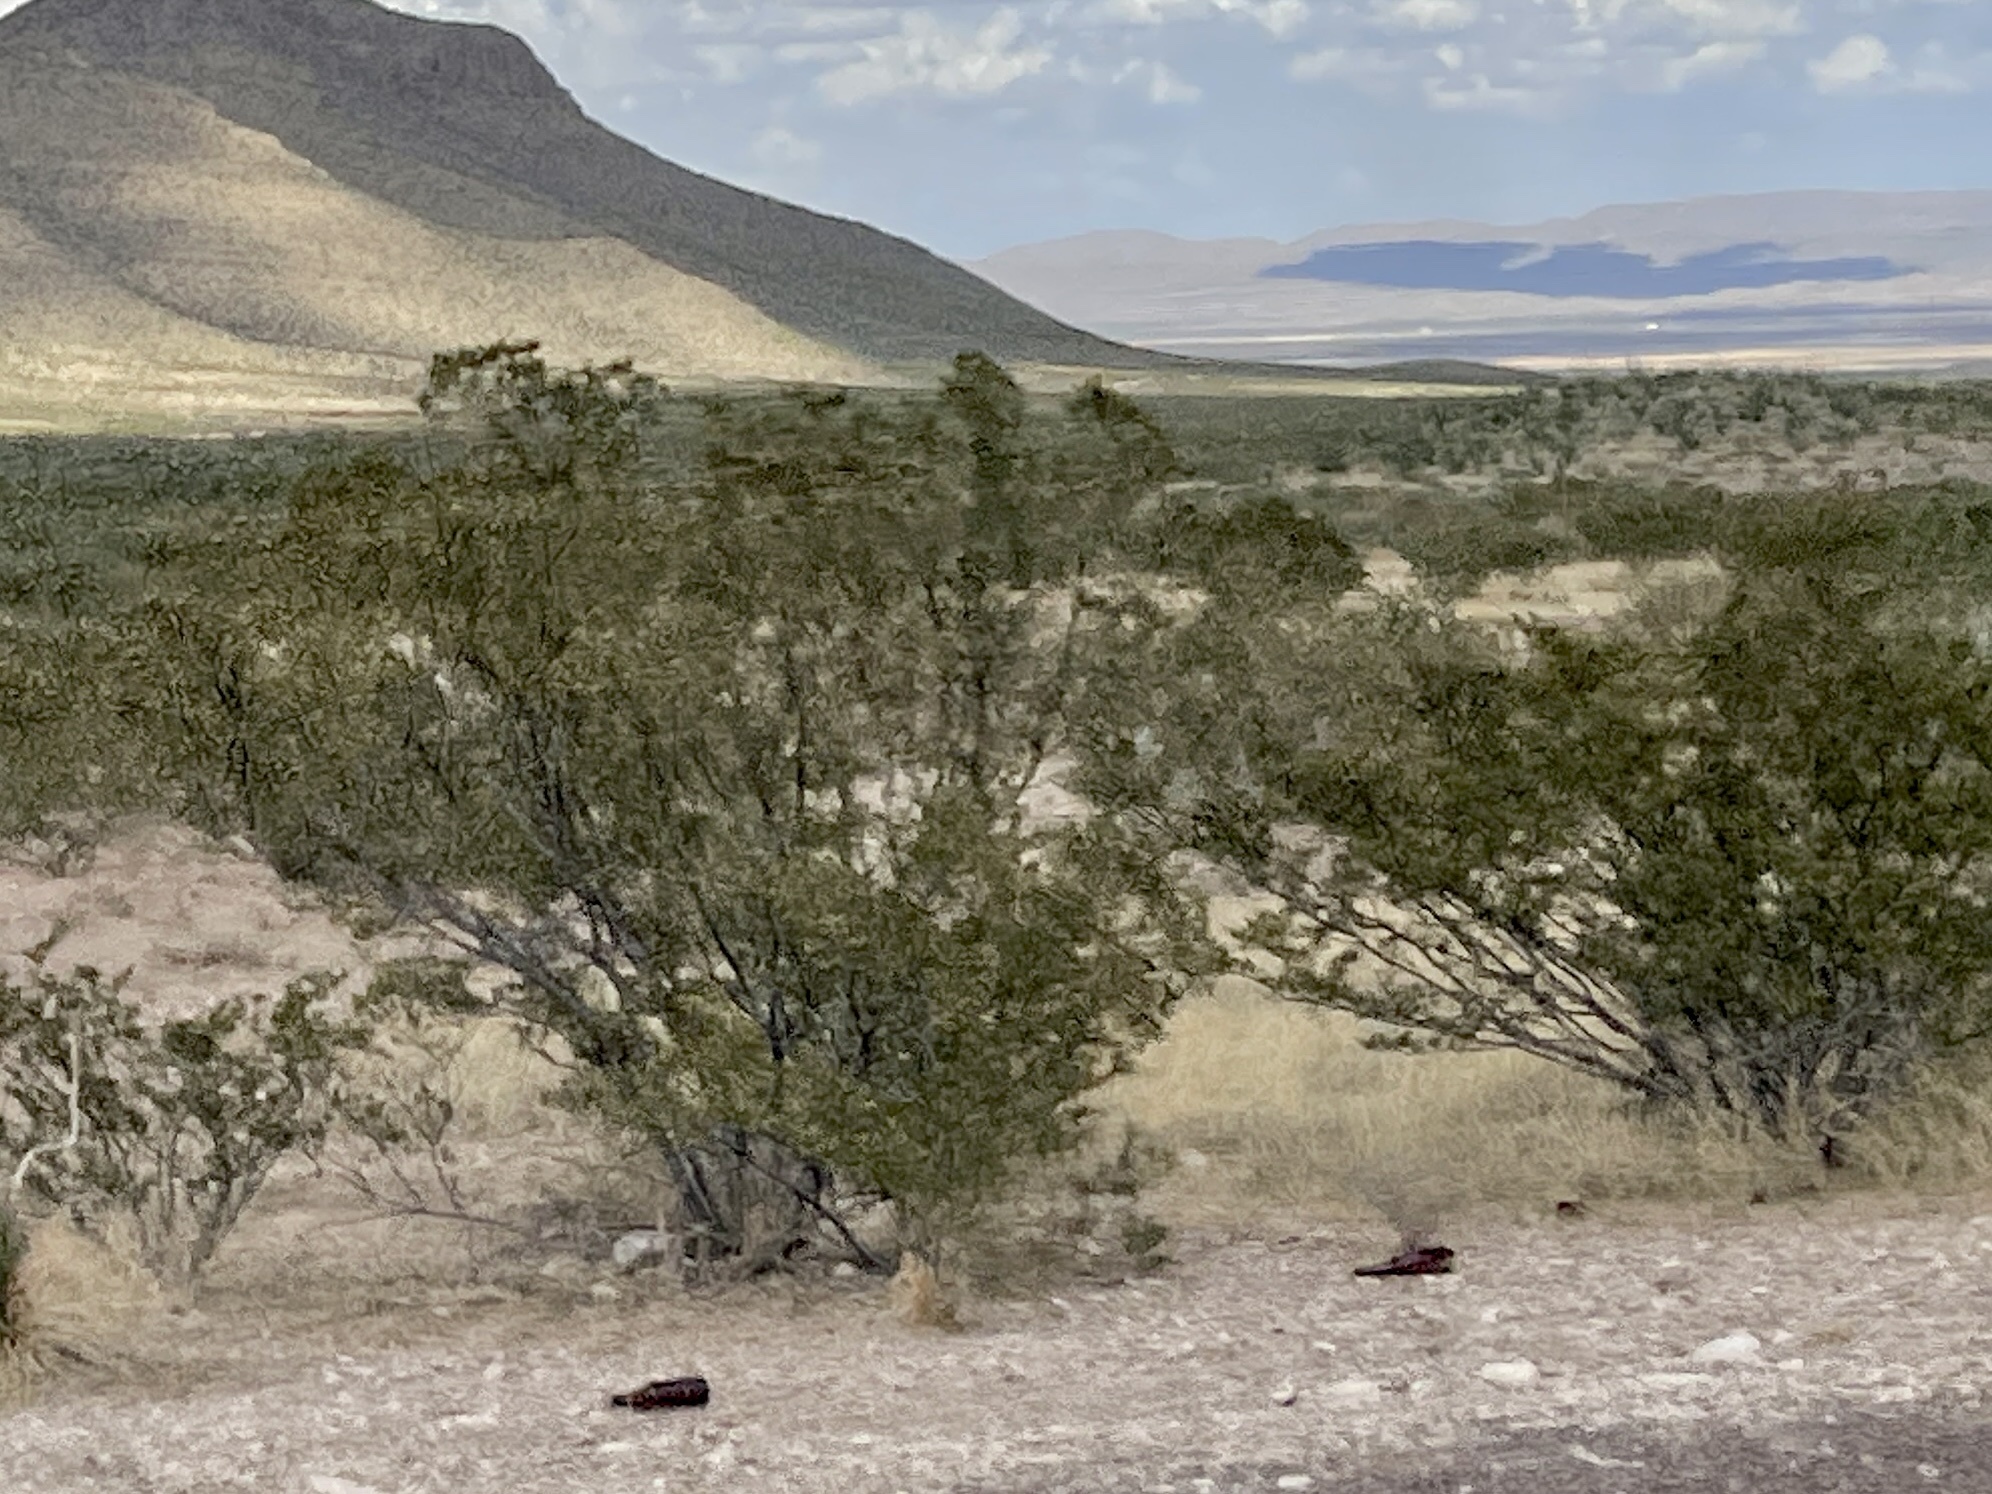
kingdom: Plantae
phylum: Tracheophyta
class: Magnoliopsida
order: Zygophyllales
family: Zygophyllaceae
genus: Larrea
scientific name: Larrea tridentata
